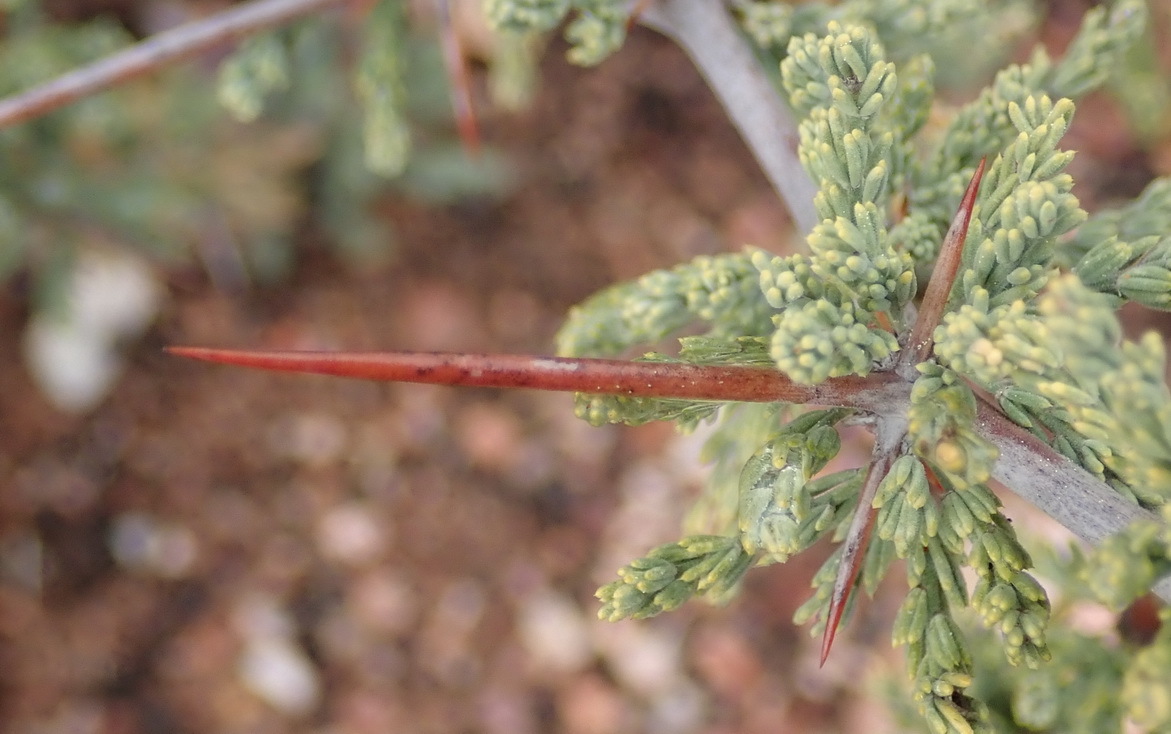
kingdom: Plantae
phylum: Tracheophyta
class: Liliopsida
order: Asparagales
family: Asparagaceae
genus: Asparagus
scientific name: Asparagus capensis
